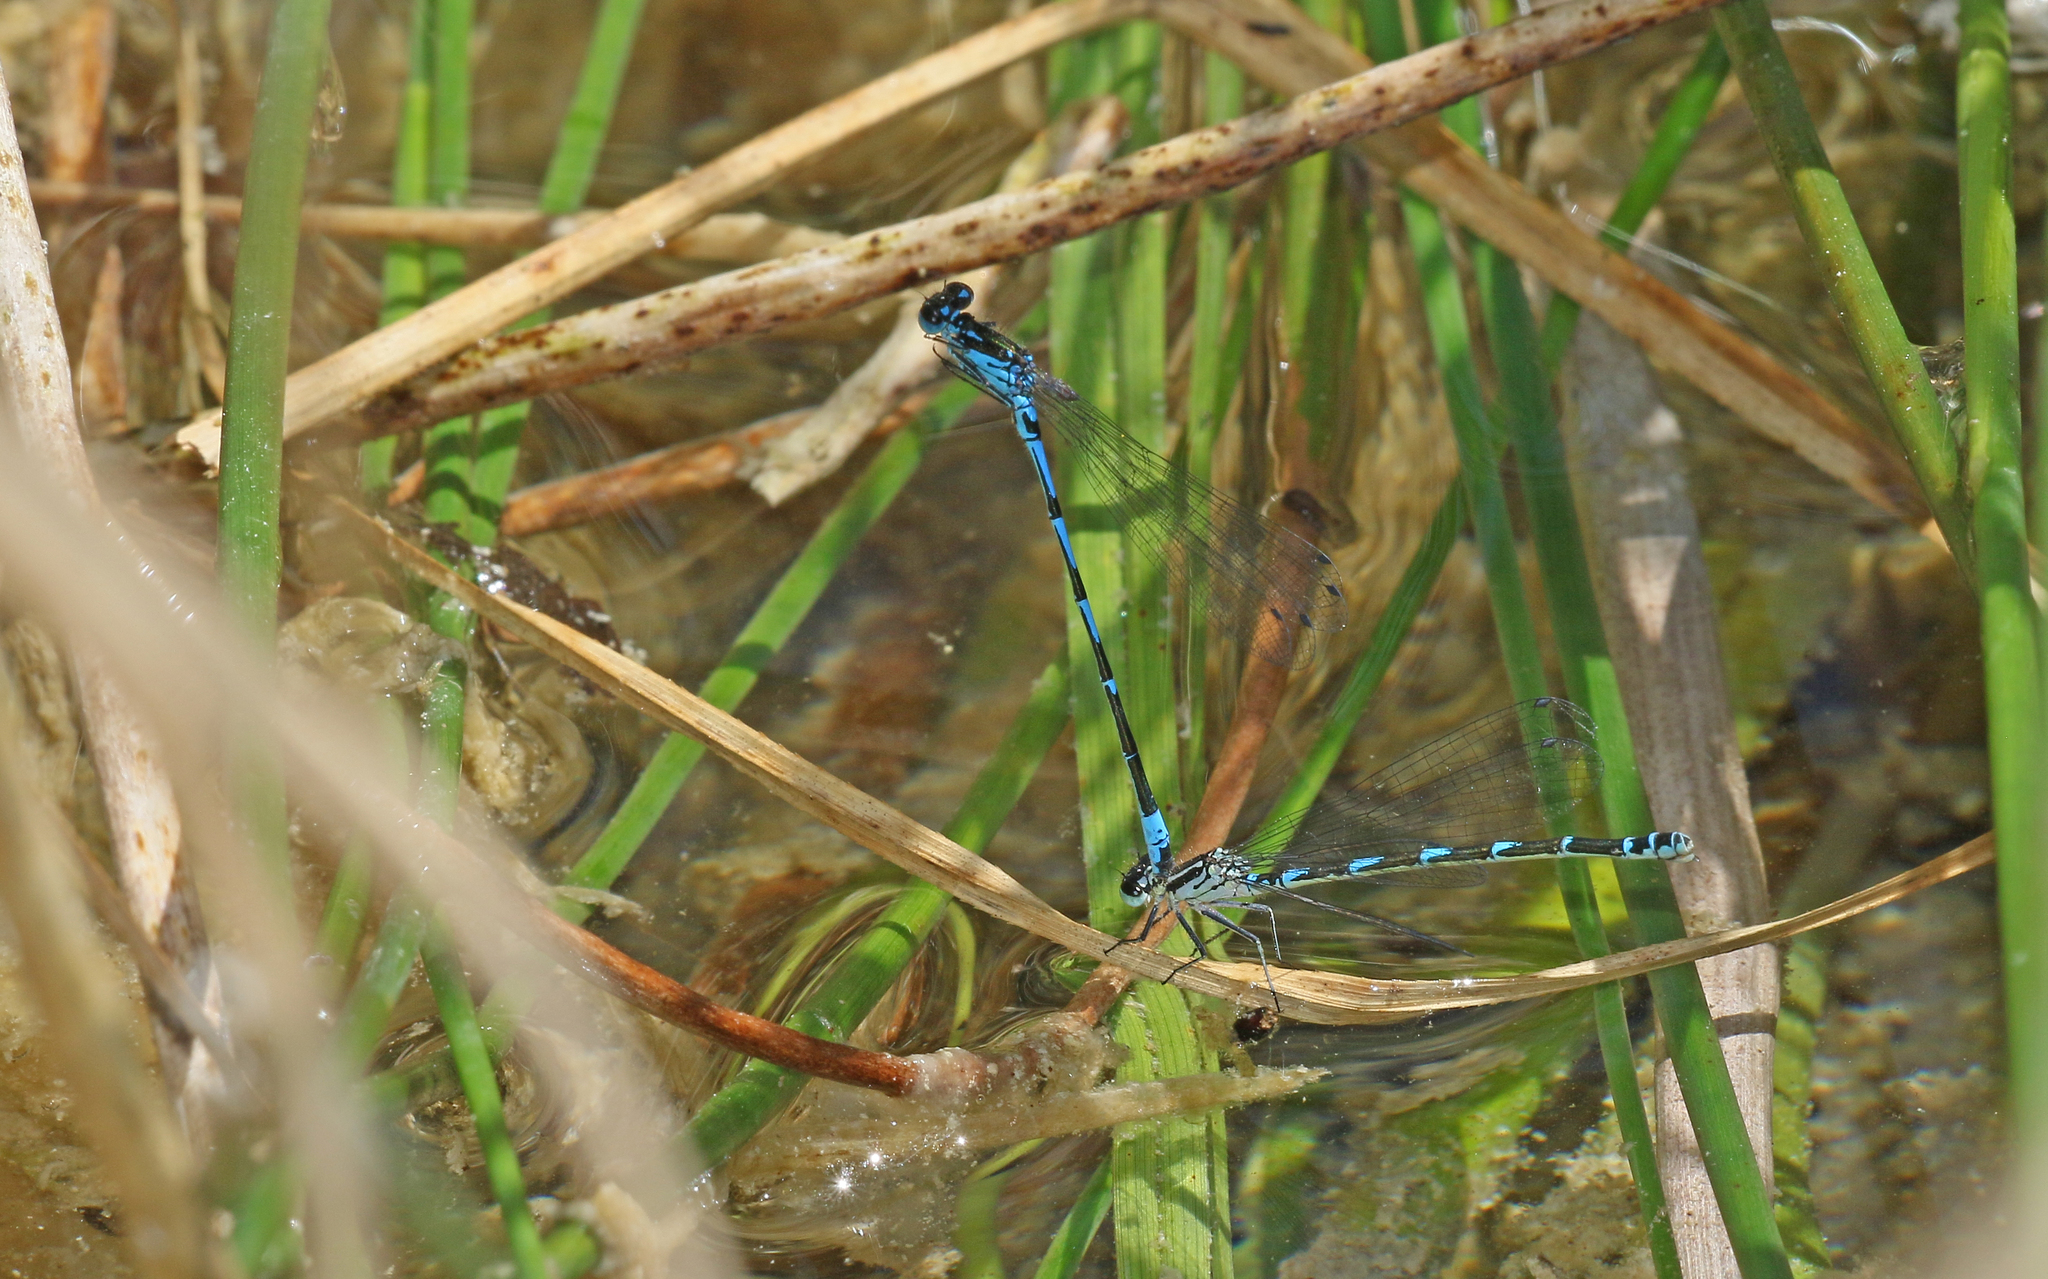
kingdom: Animalia
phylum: Arthropoda
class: Insecta
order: Odonata
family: Coenagrionidae
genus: Coenagrion
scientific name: Coenagrion pulchellum
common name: Variable bluet
